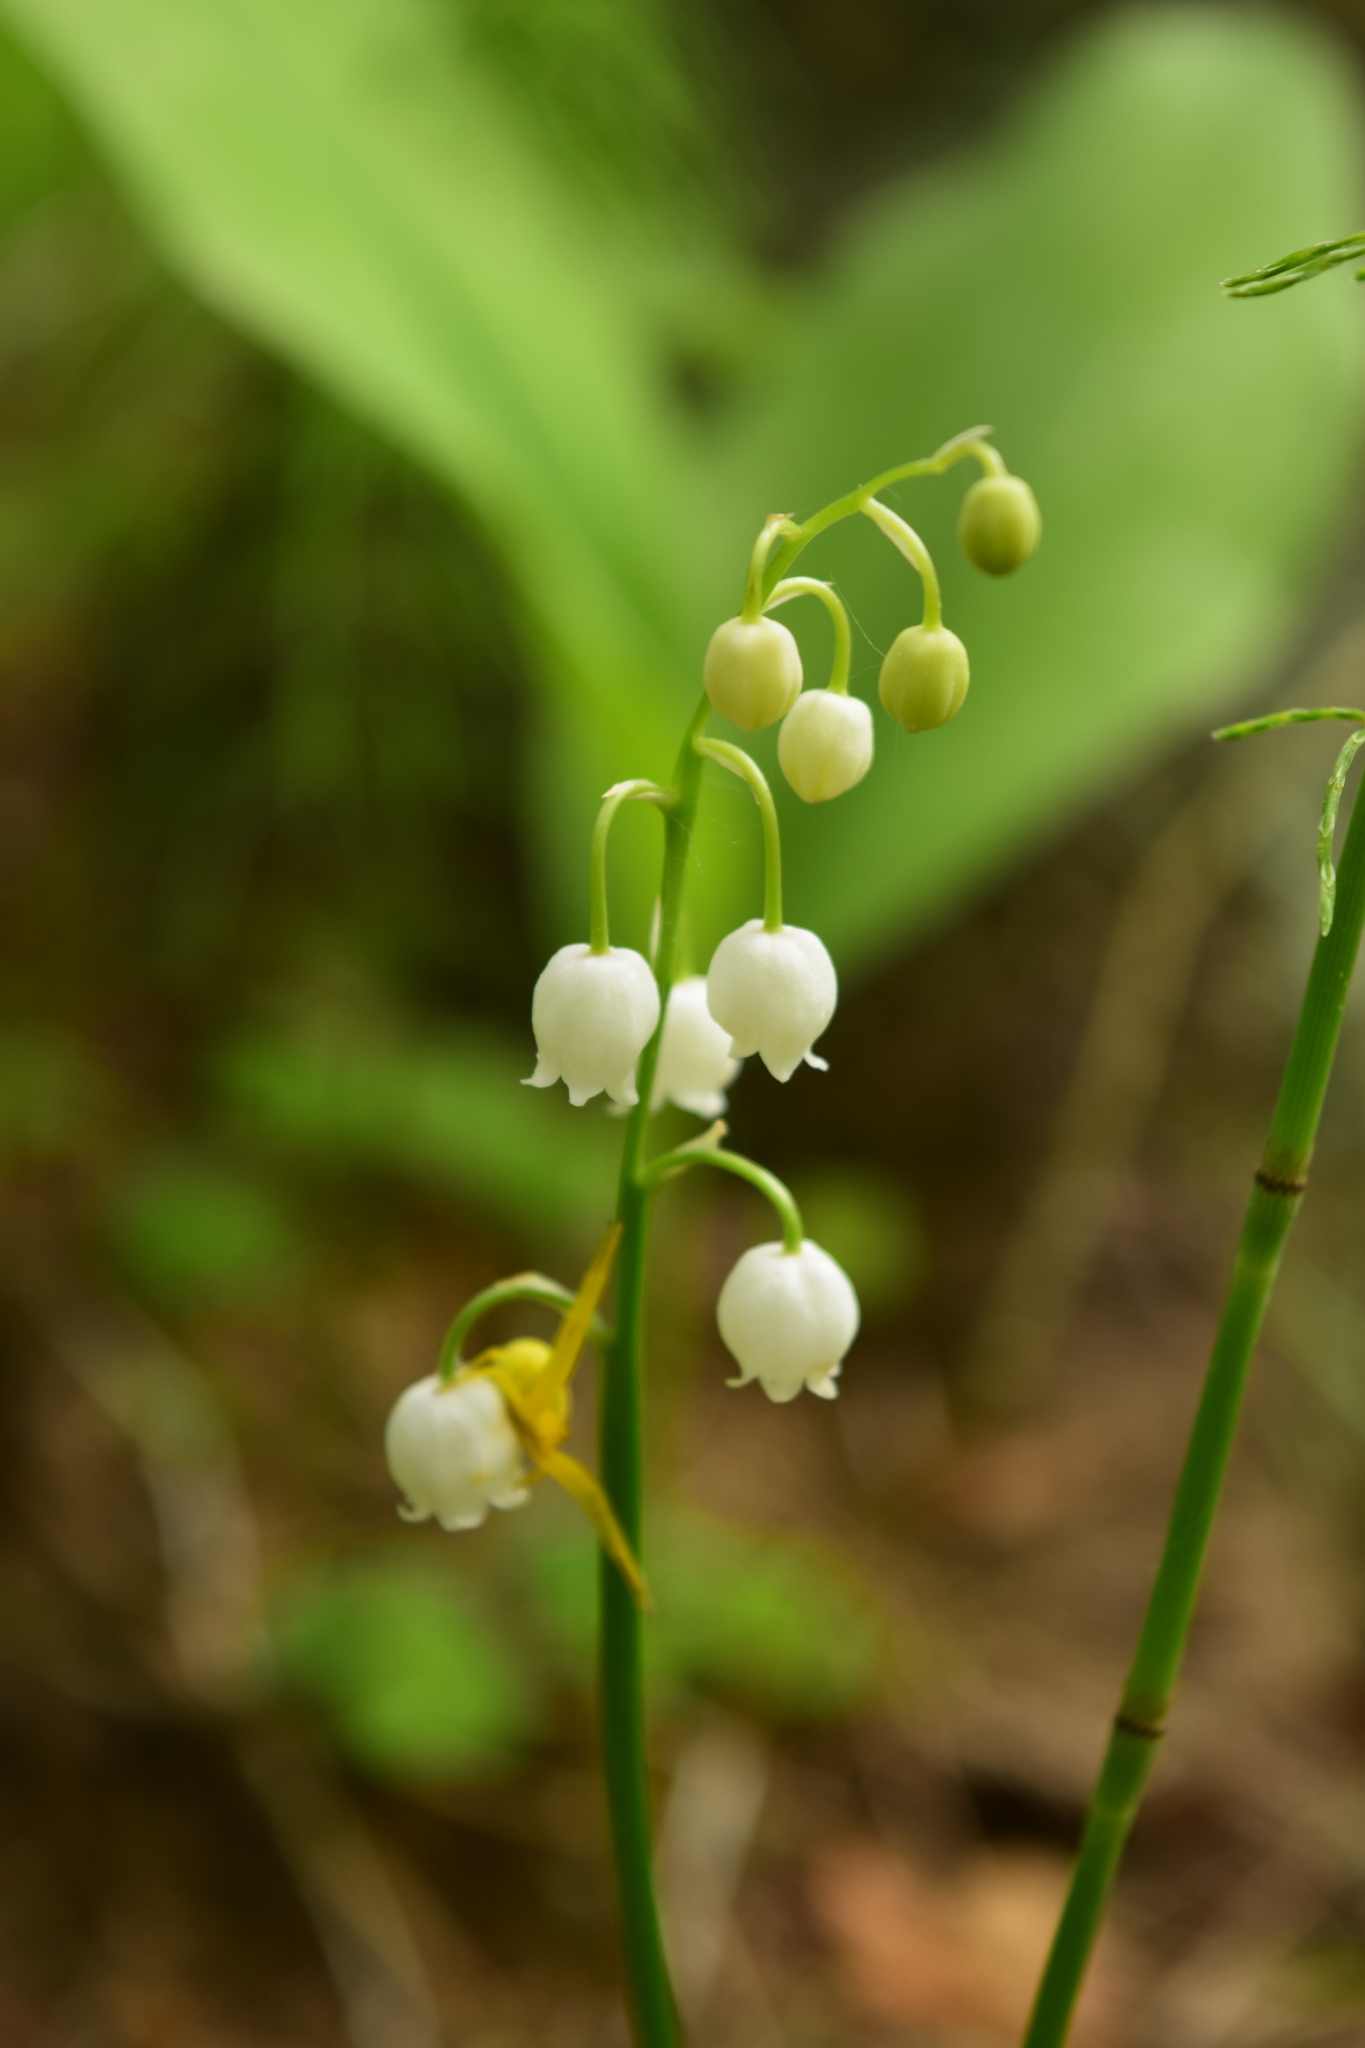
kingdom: Plantae
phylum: Tracheophyta
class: Liliopsida
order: Asparagales
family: Asparagaceae
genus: Convallaria
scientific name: Convallaria majalis
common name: Lily-of-the-valley
